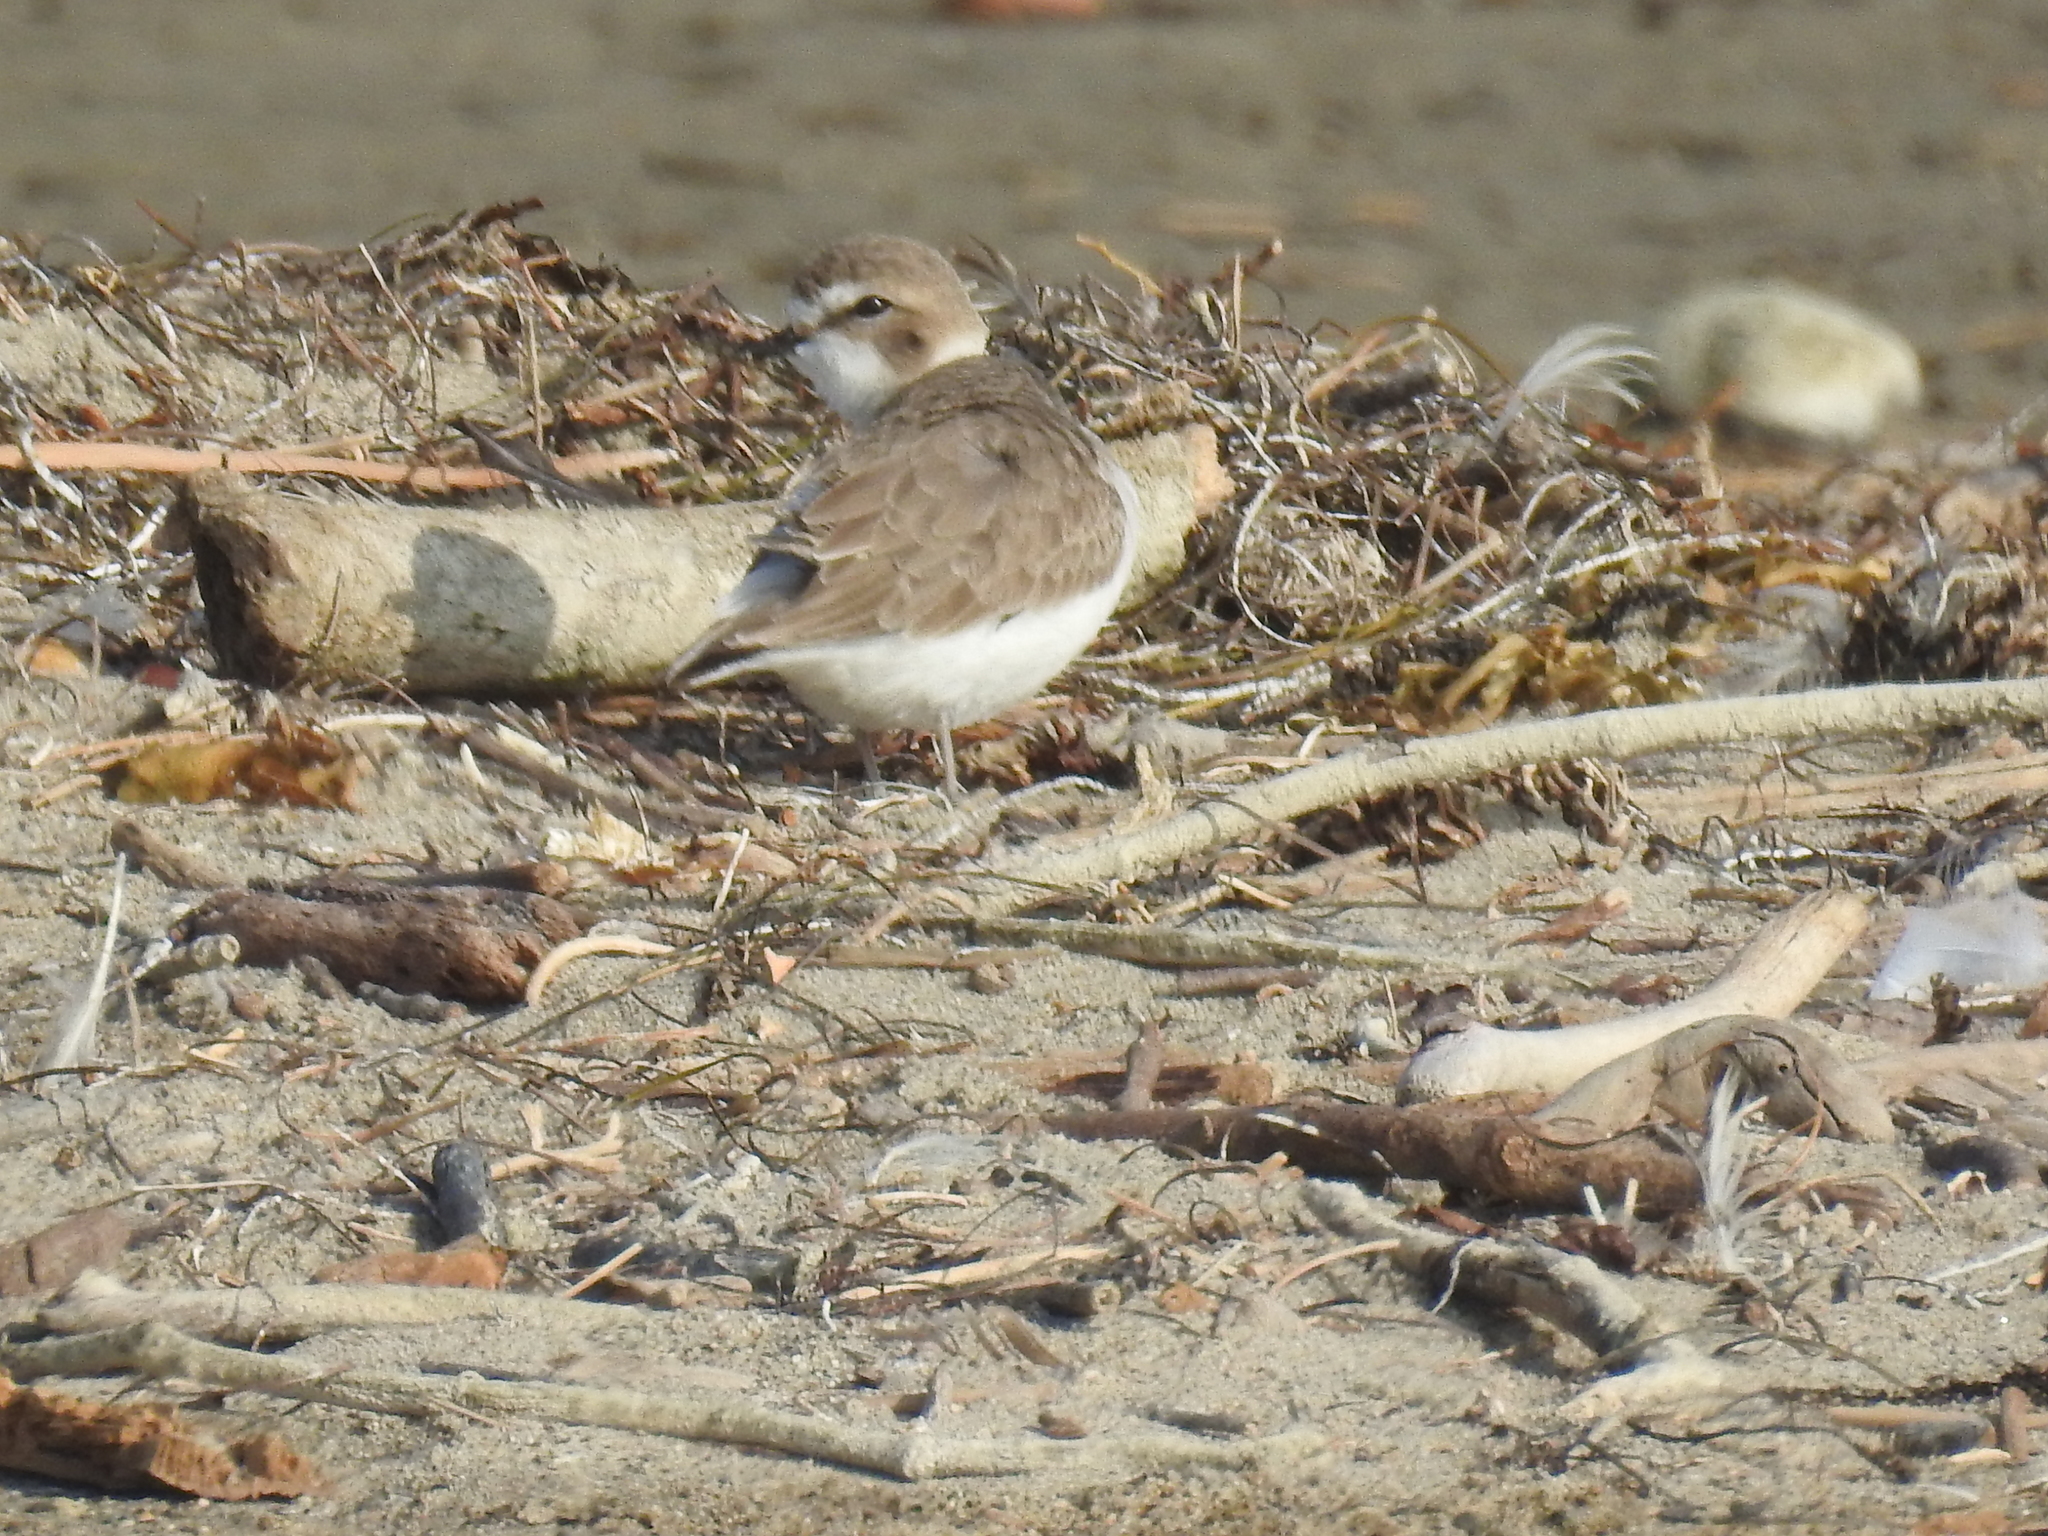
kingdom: Animalia
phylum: Chordata
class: Aves
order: Charadriiformes
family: Charadriidae
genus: Anarhynchus
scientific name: Anarhynchus
